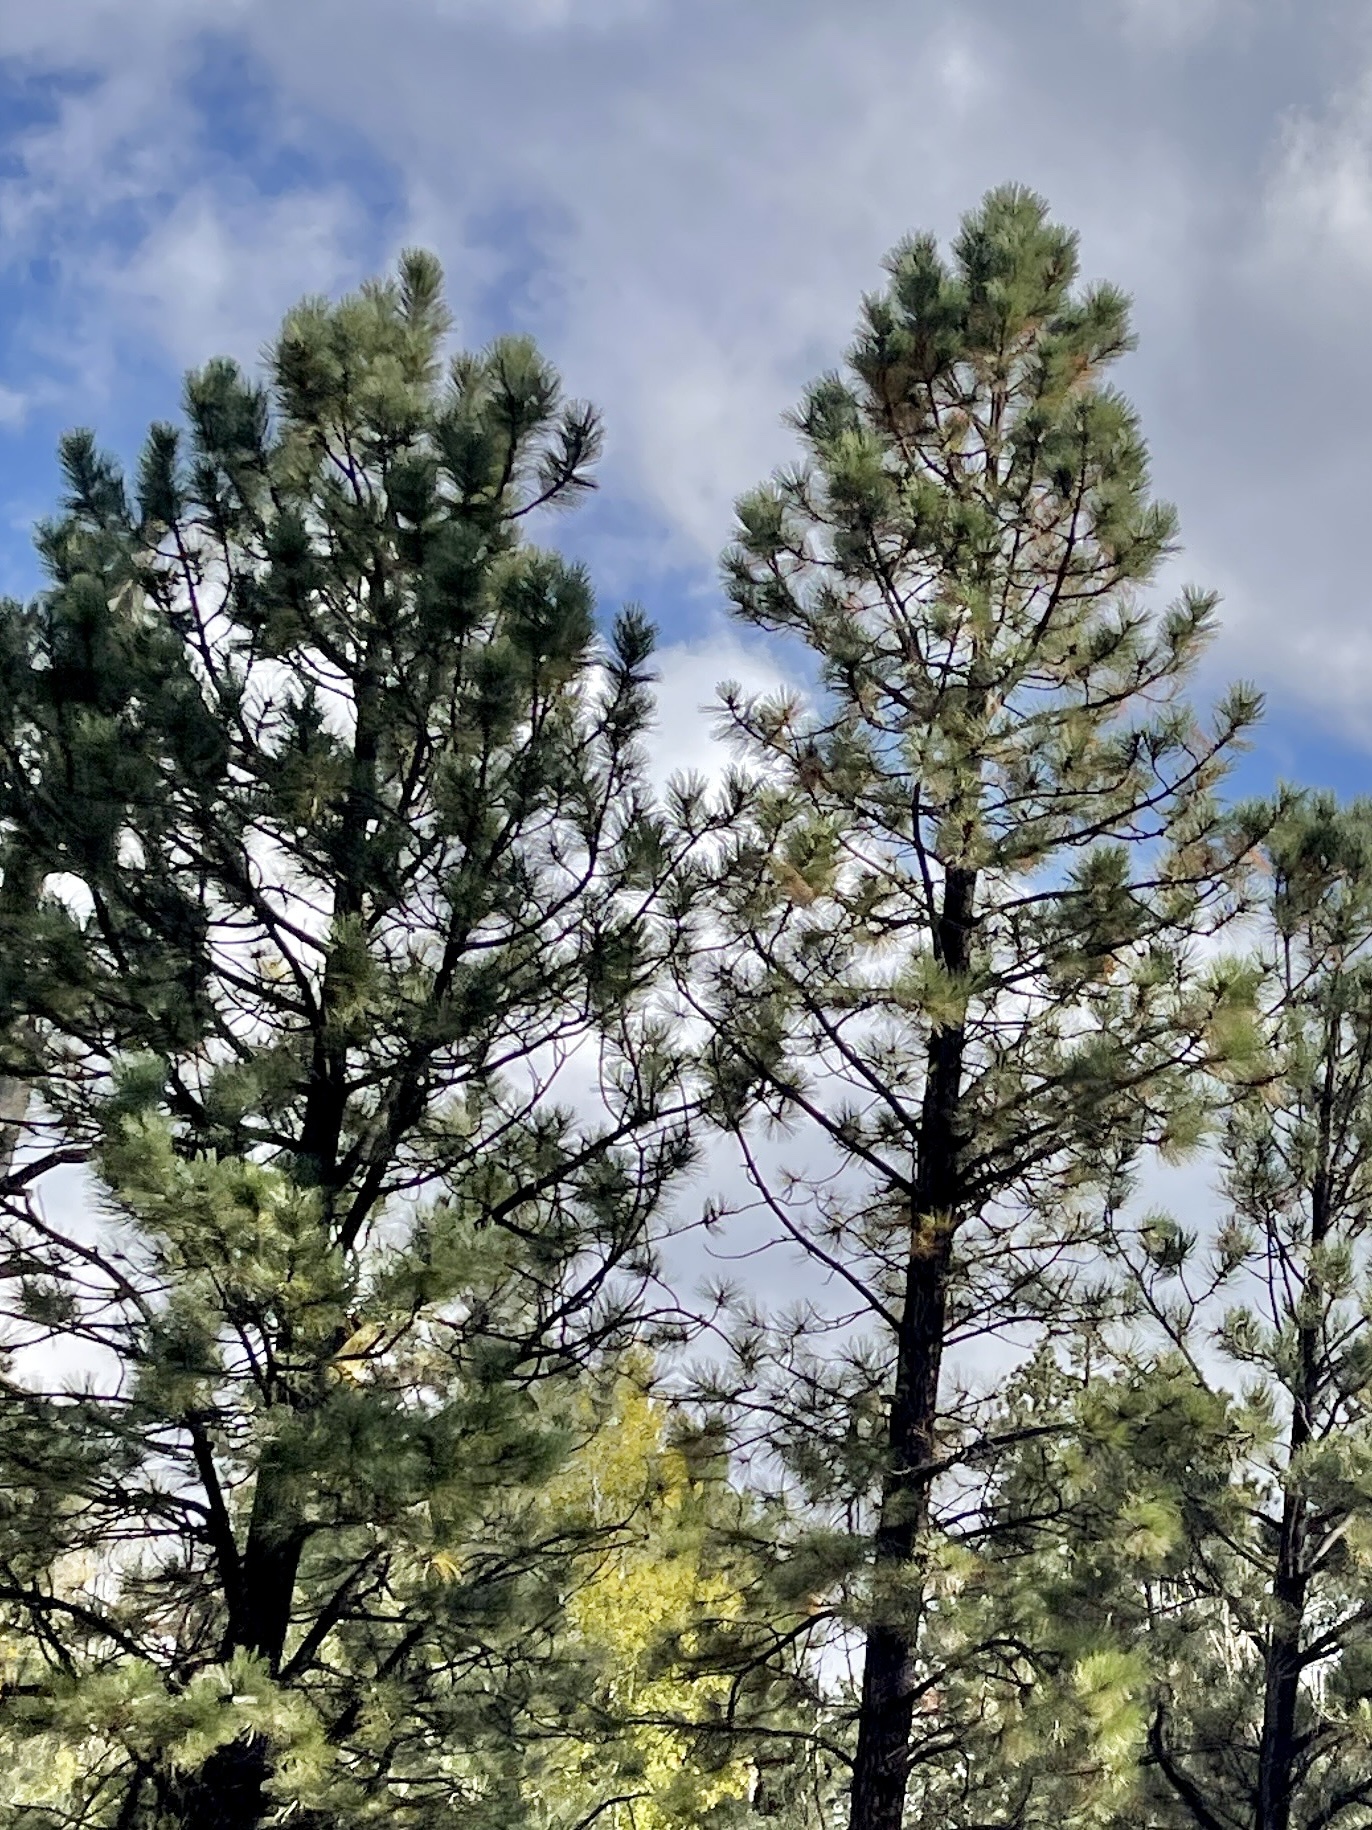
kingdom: Plantae
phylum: Tracheophyta
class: Pinopsida
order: Pinales
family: Pinaceae
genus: Pinus
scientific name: Pinus ponderosa
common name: Western yellow-pine
